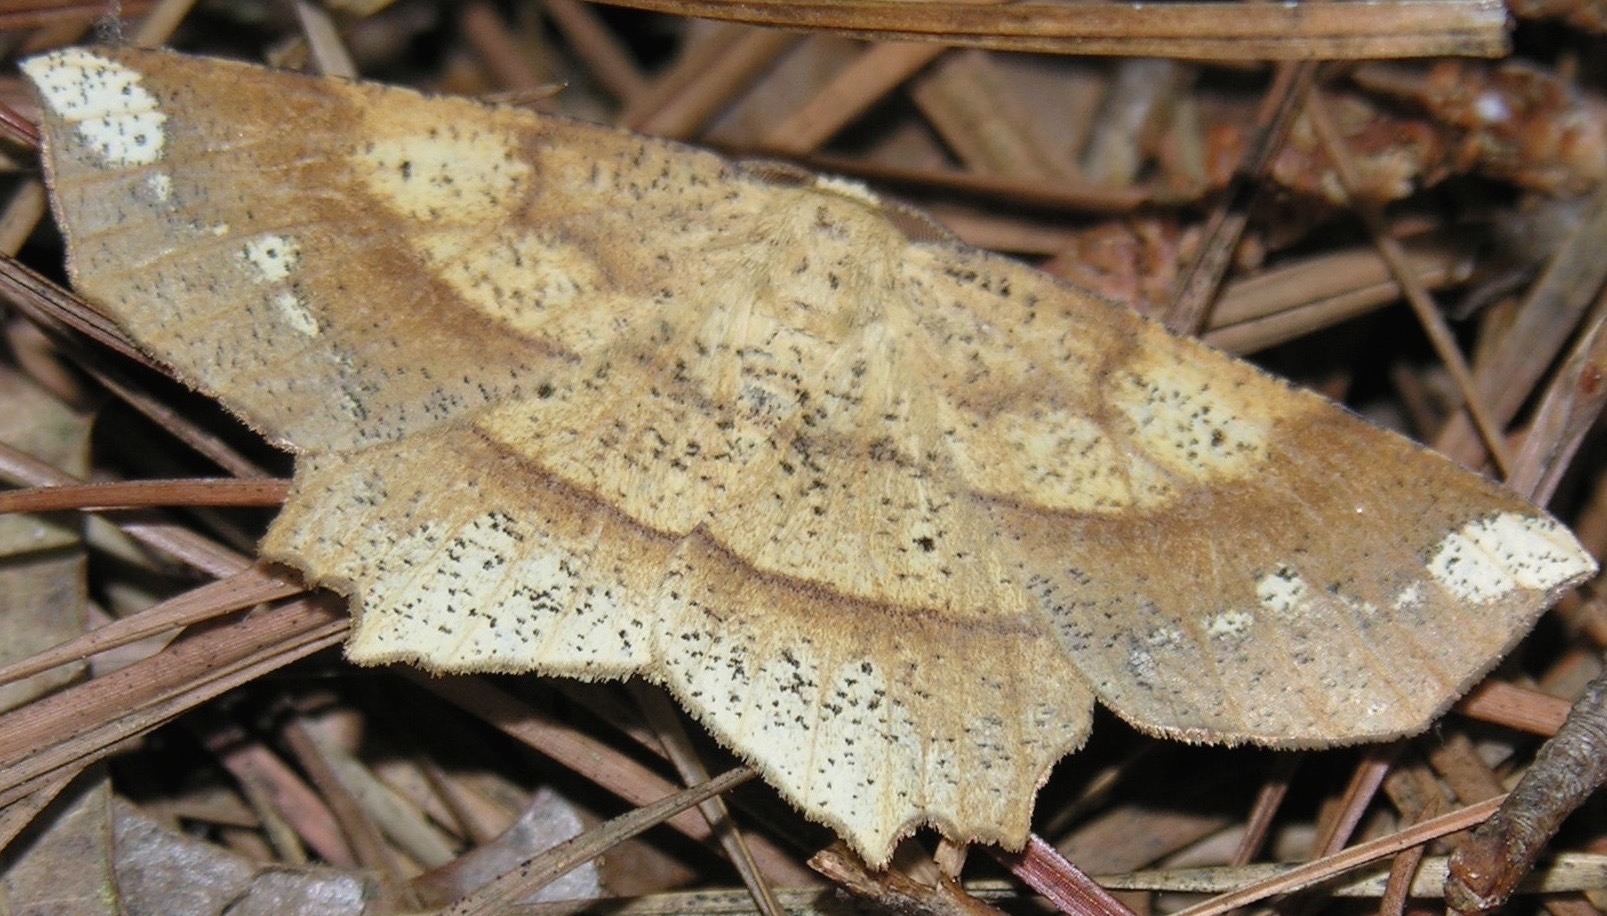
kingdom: Animalia
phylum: Arthropoda
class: Insecta
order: Lepidoptera
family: Geometridae
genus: Euchlaena
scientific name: Euchlaena amoenaria
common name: Deep yellow euchlaena
